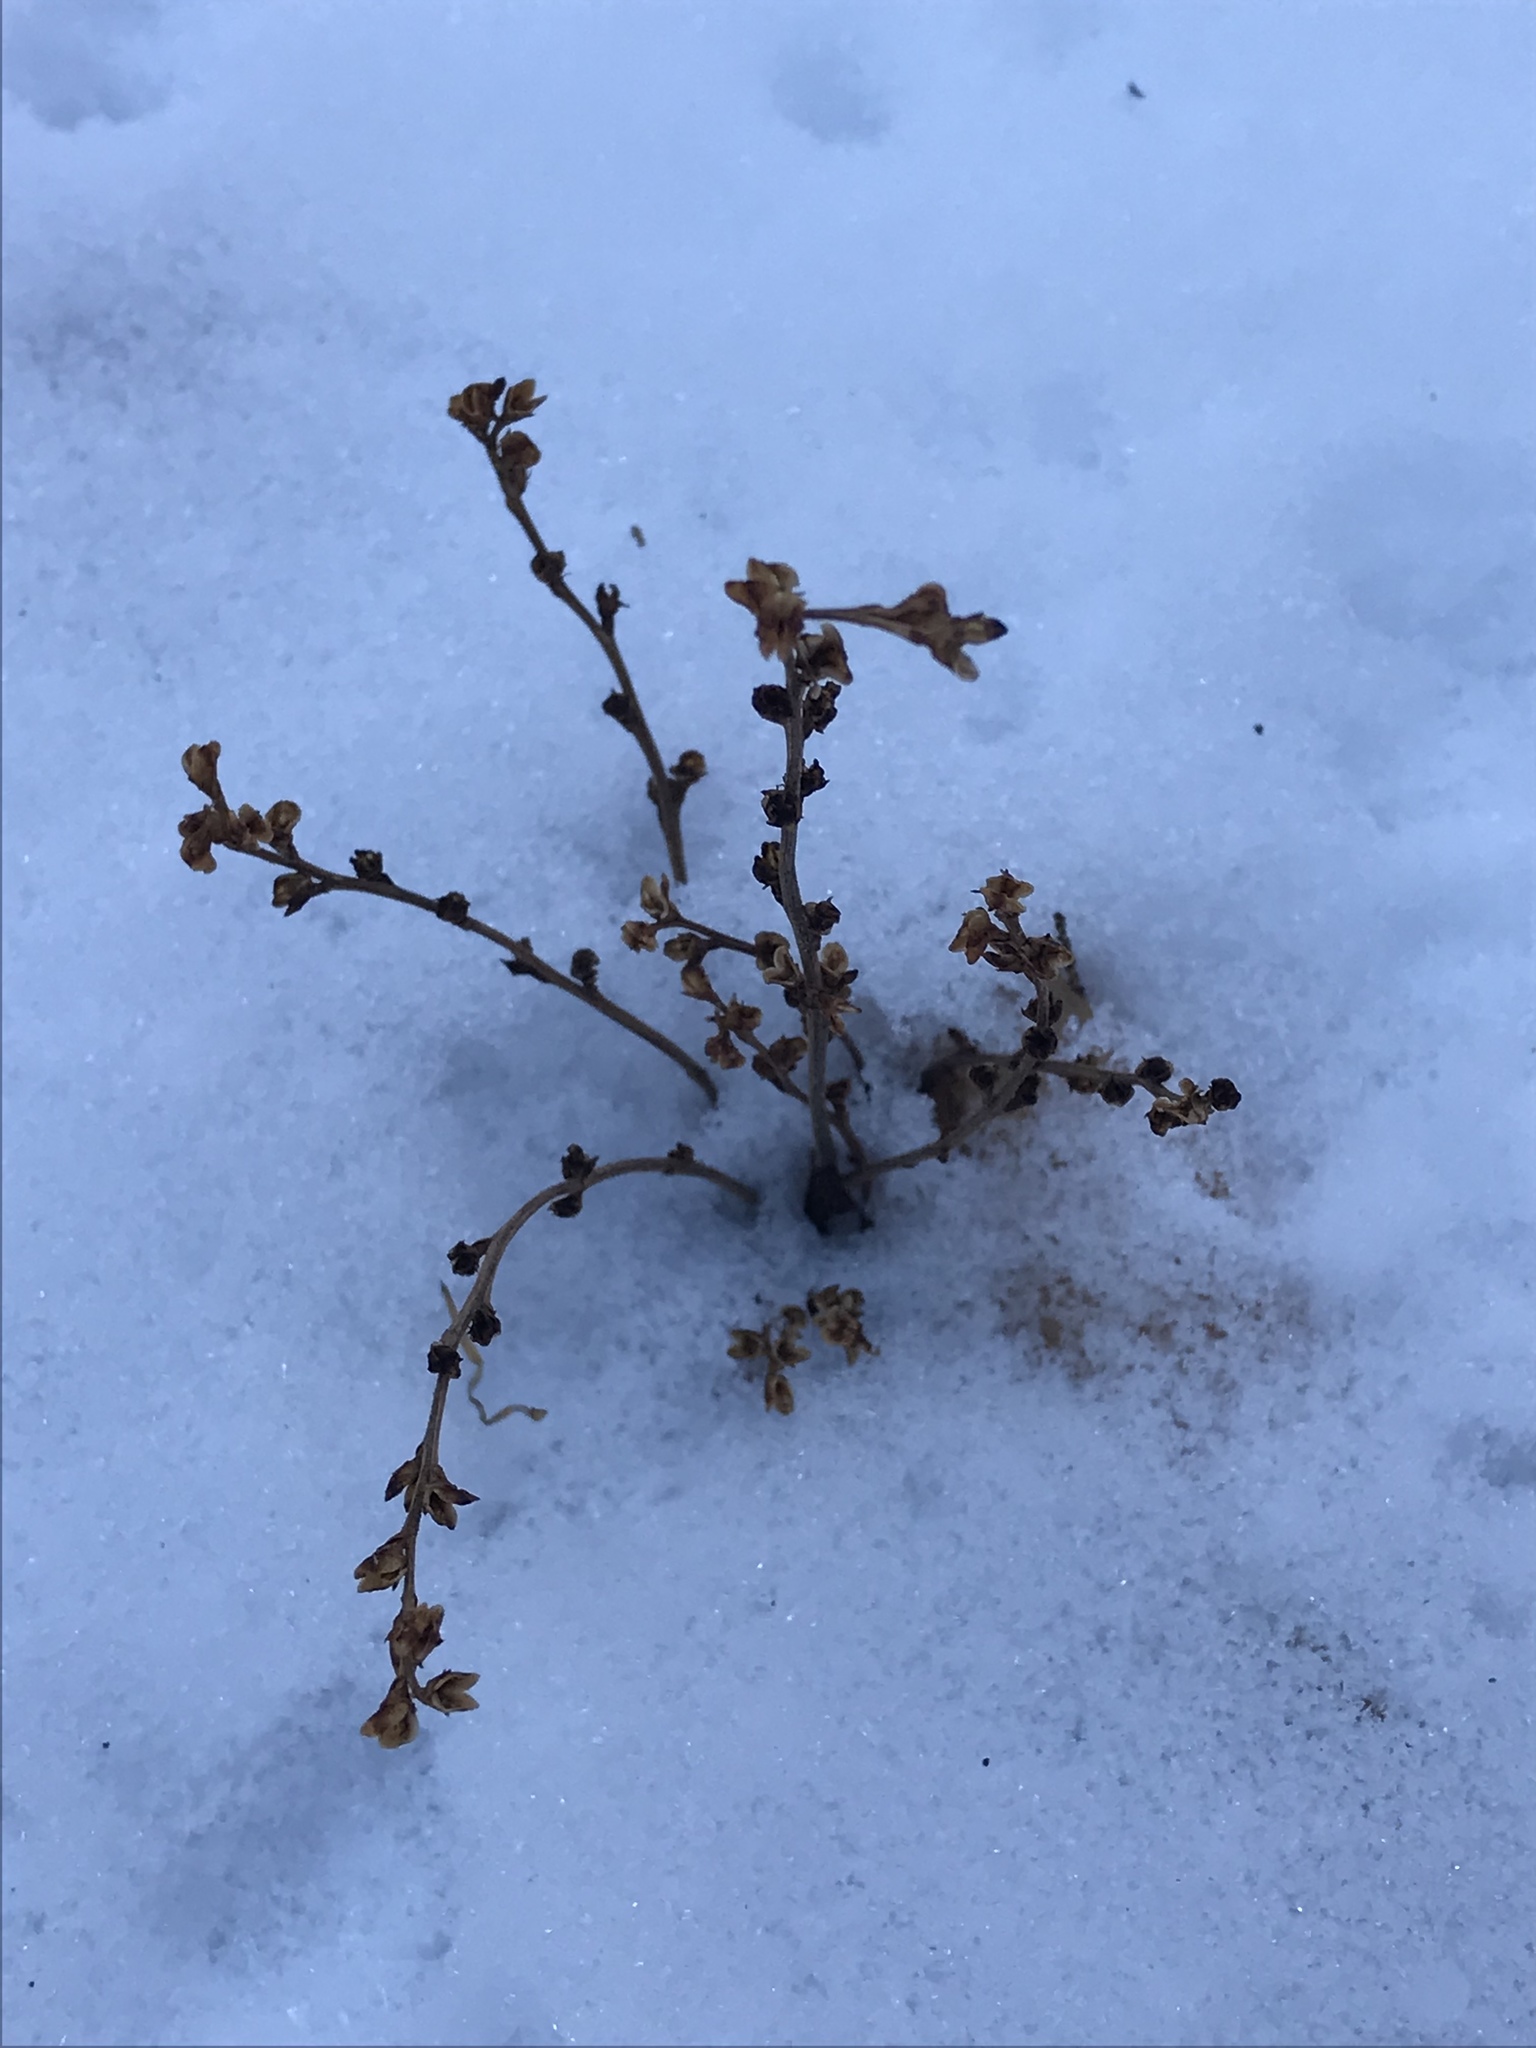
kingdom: Plantae
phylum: Tracheophyta
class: Magnoliopsida
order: Lamiales
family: Orobanchaceae
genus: Epifagus
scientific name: Epifagus virginiana
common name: Beechdrops
